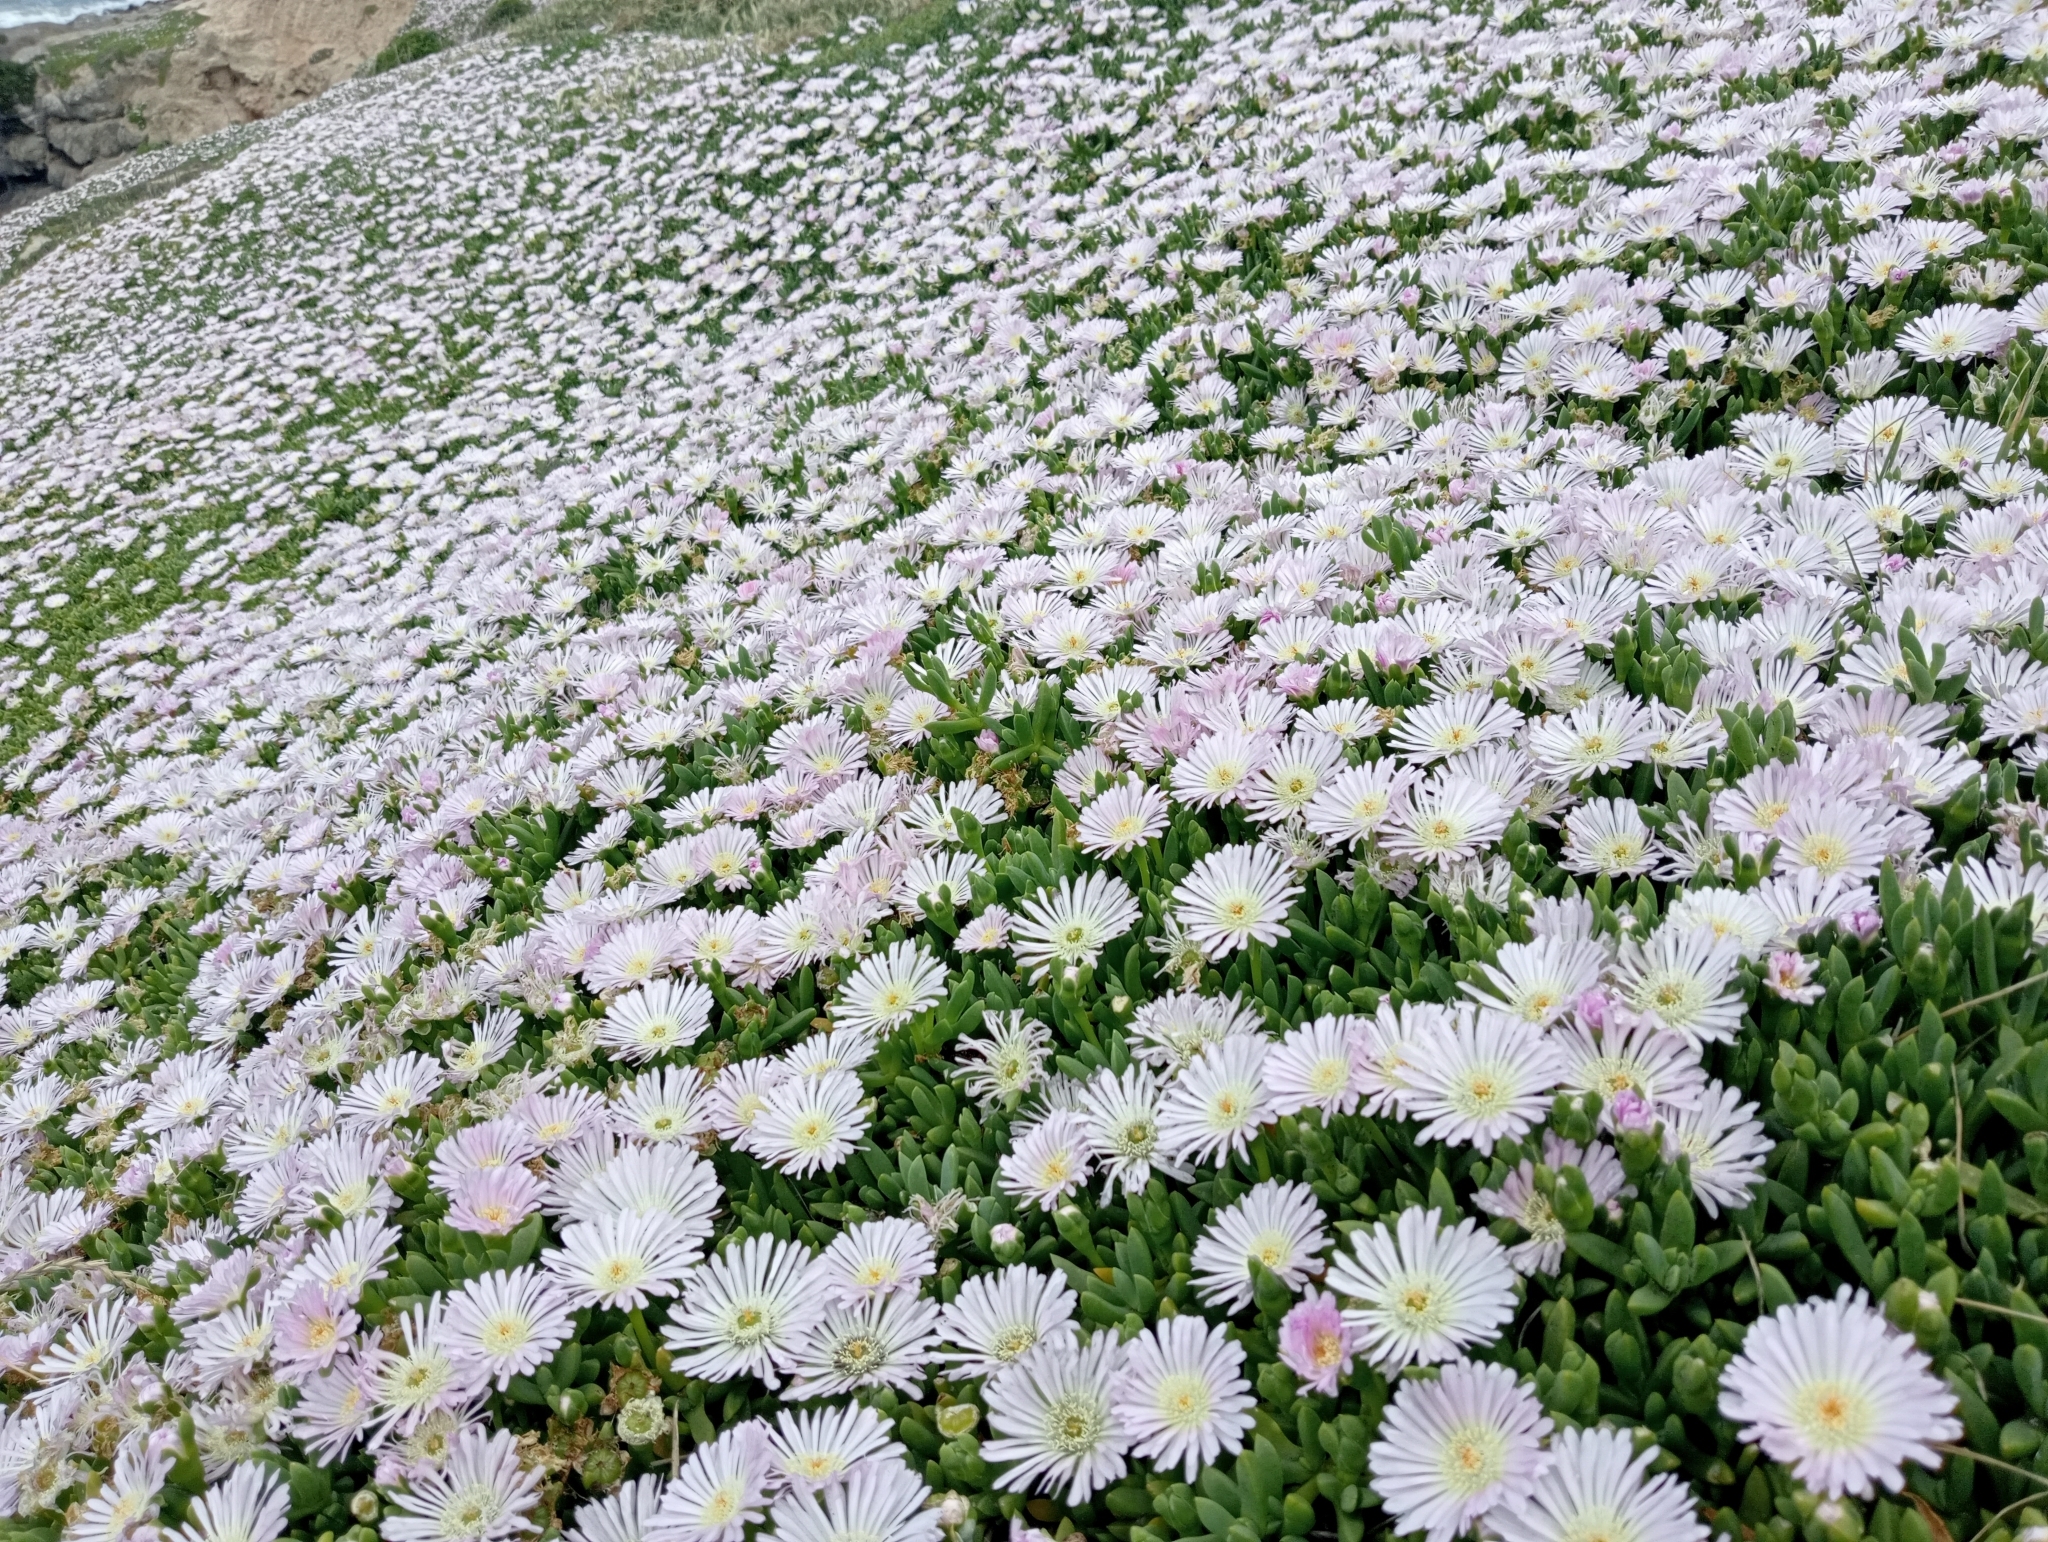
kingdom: Plantae
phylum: Tracheophyta
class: Magnoliopsida
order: Caryophyllales
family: Aizoaceae
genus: Disphyma
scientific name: Disphyma australe
